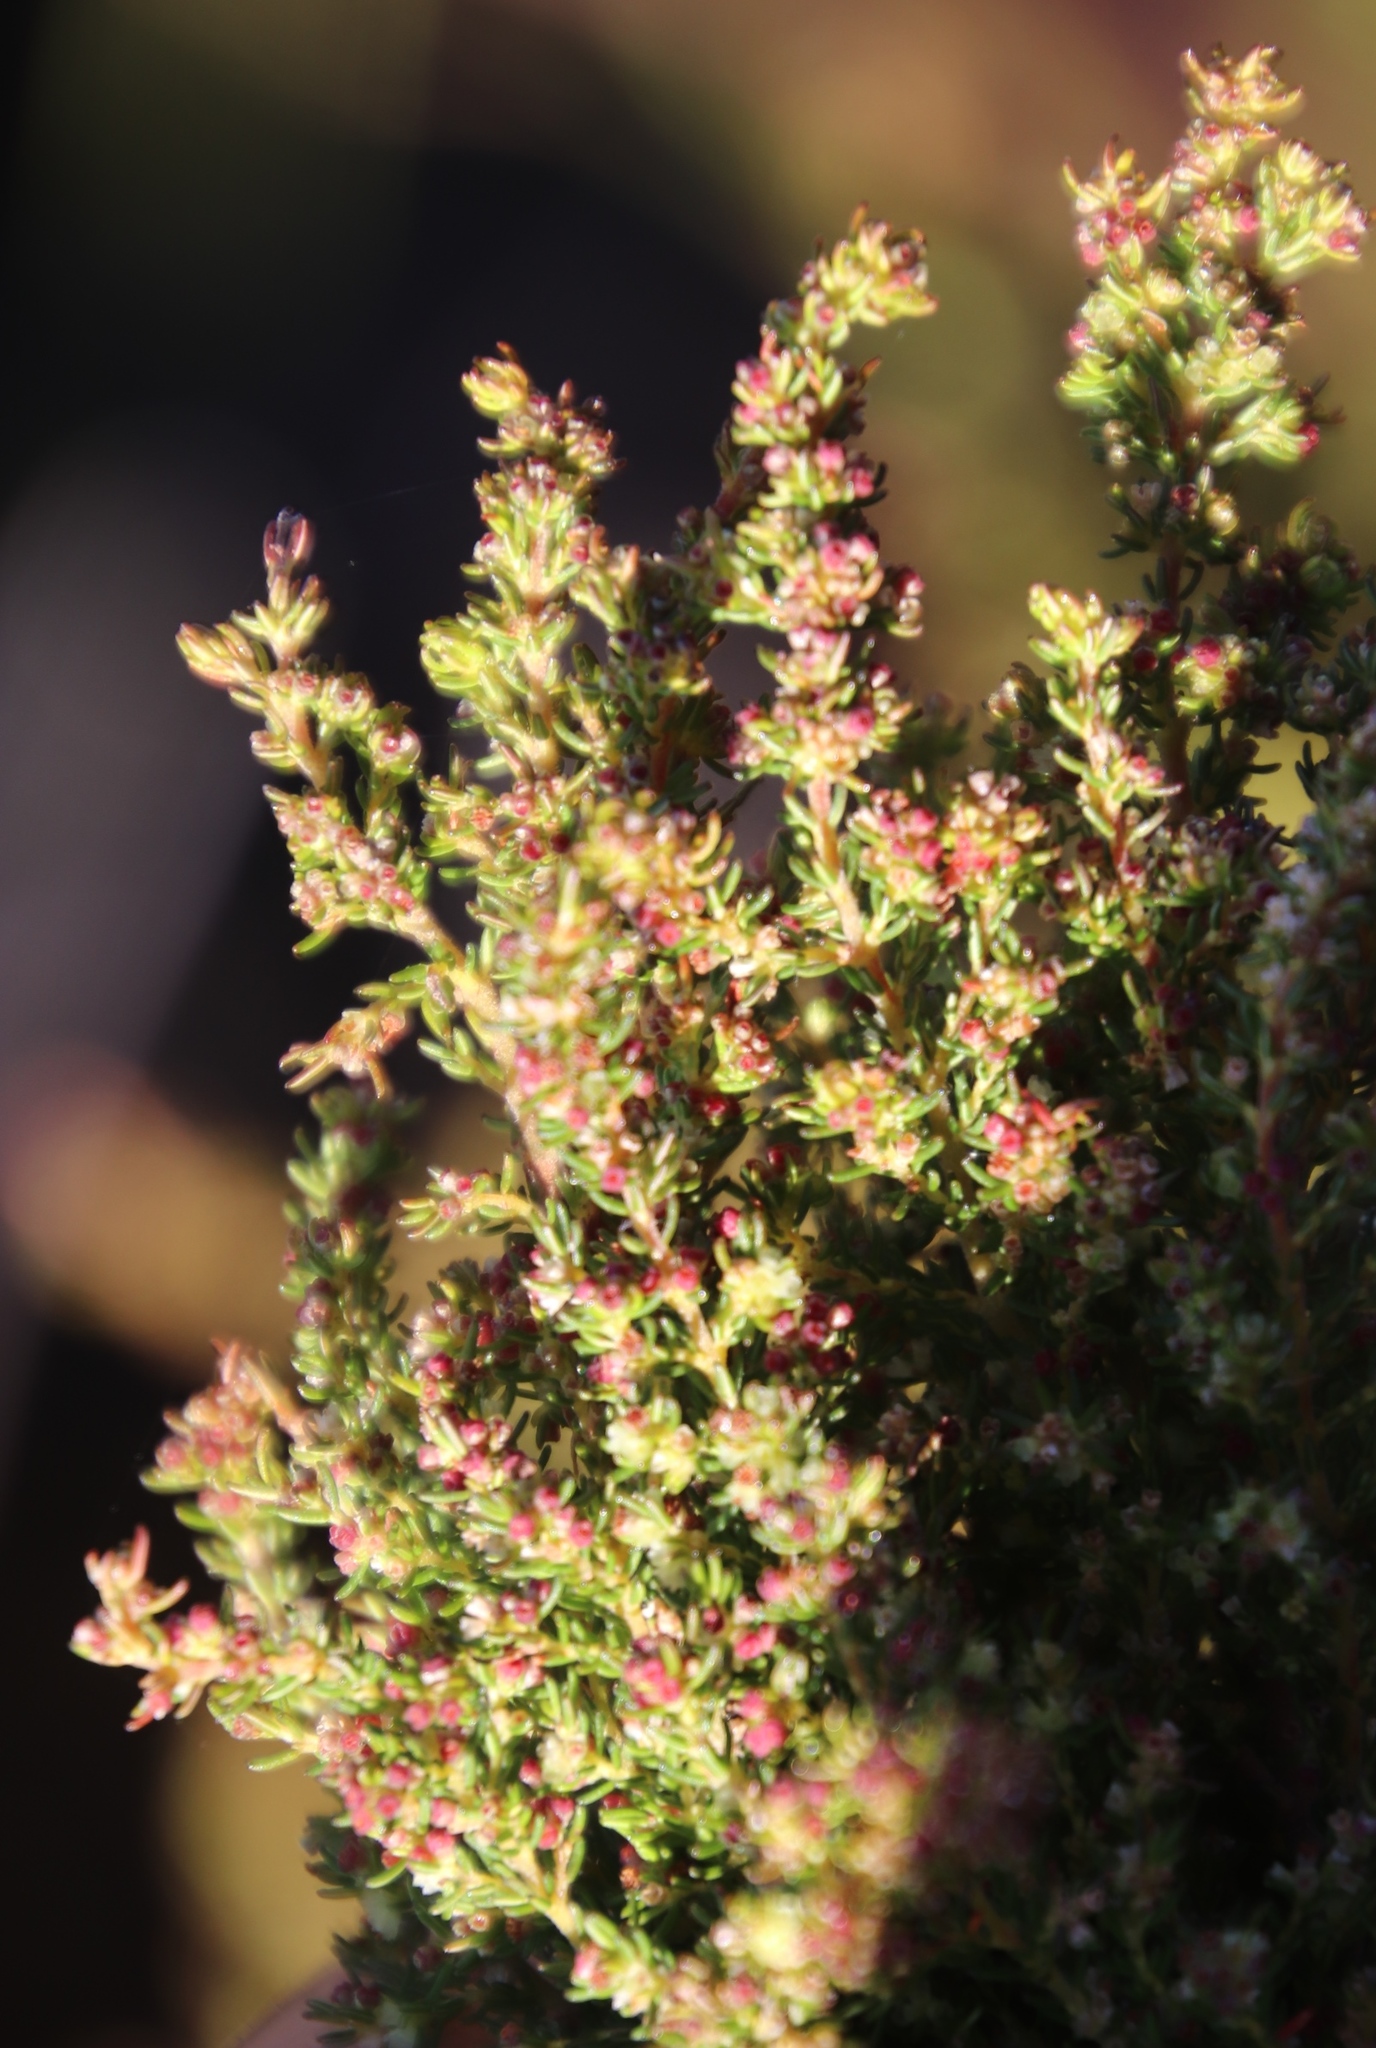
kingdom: Plantae
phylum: Tracheophyta
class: Magnoliopsida
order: Ericales
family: Ericaceae
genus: Erica
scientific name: Erica muscosa
